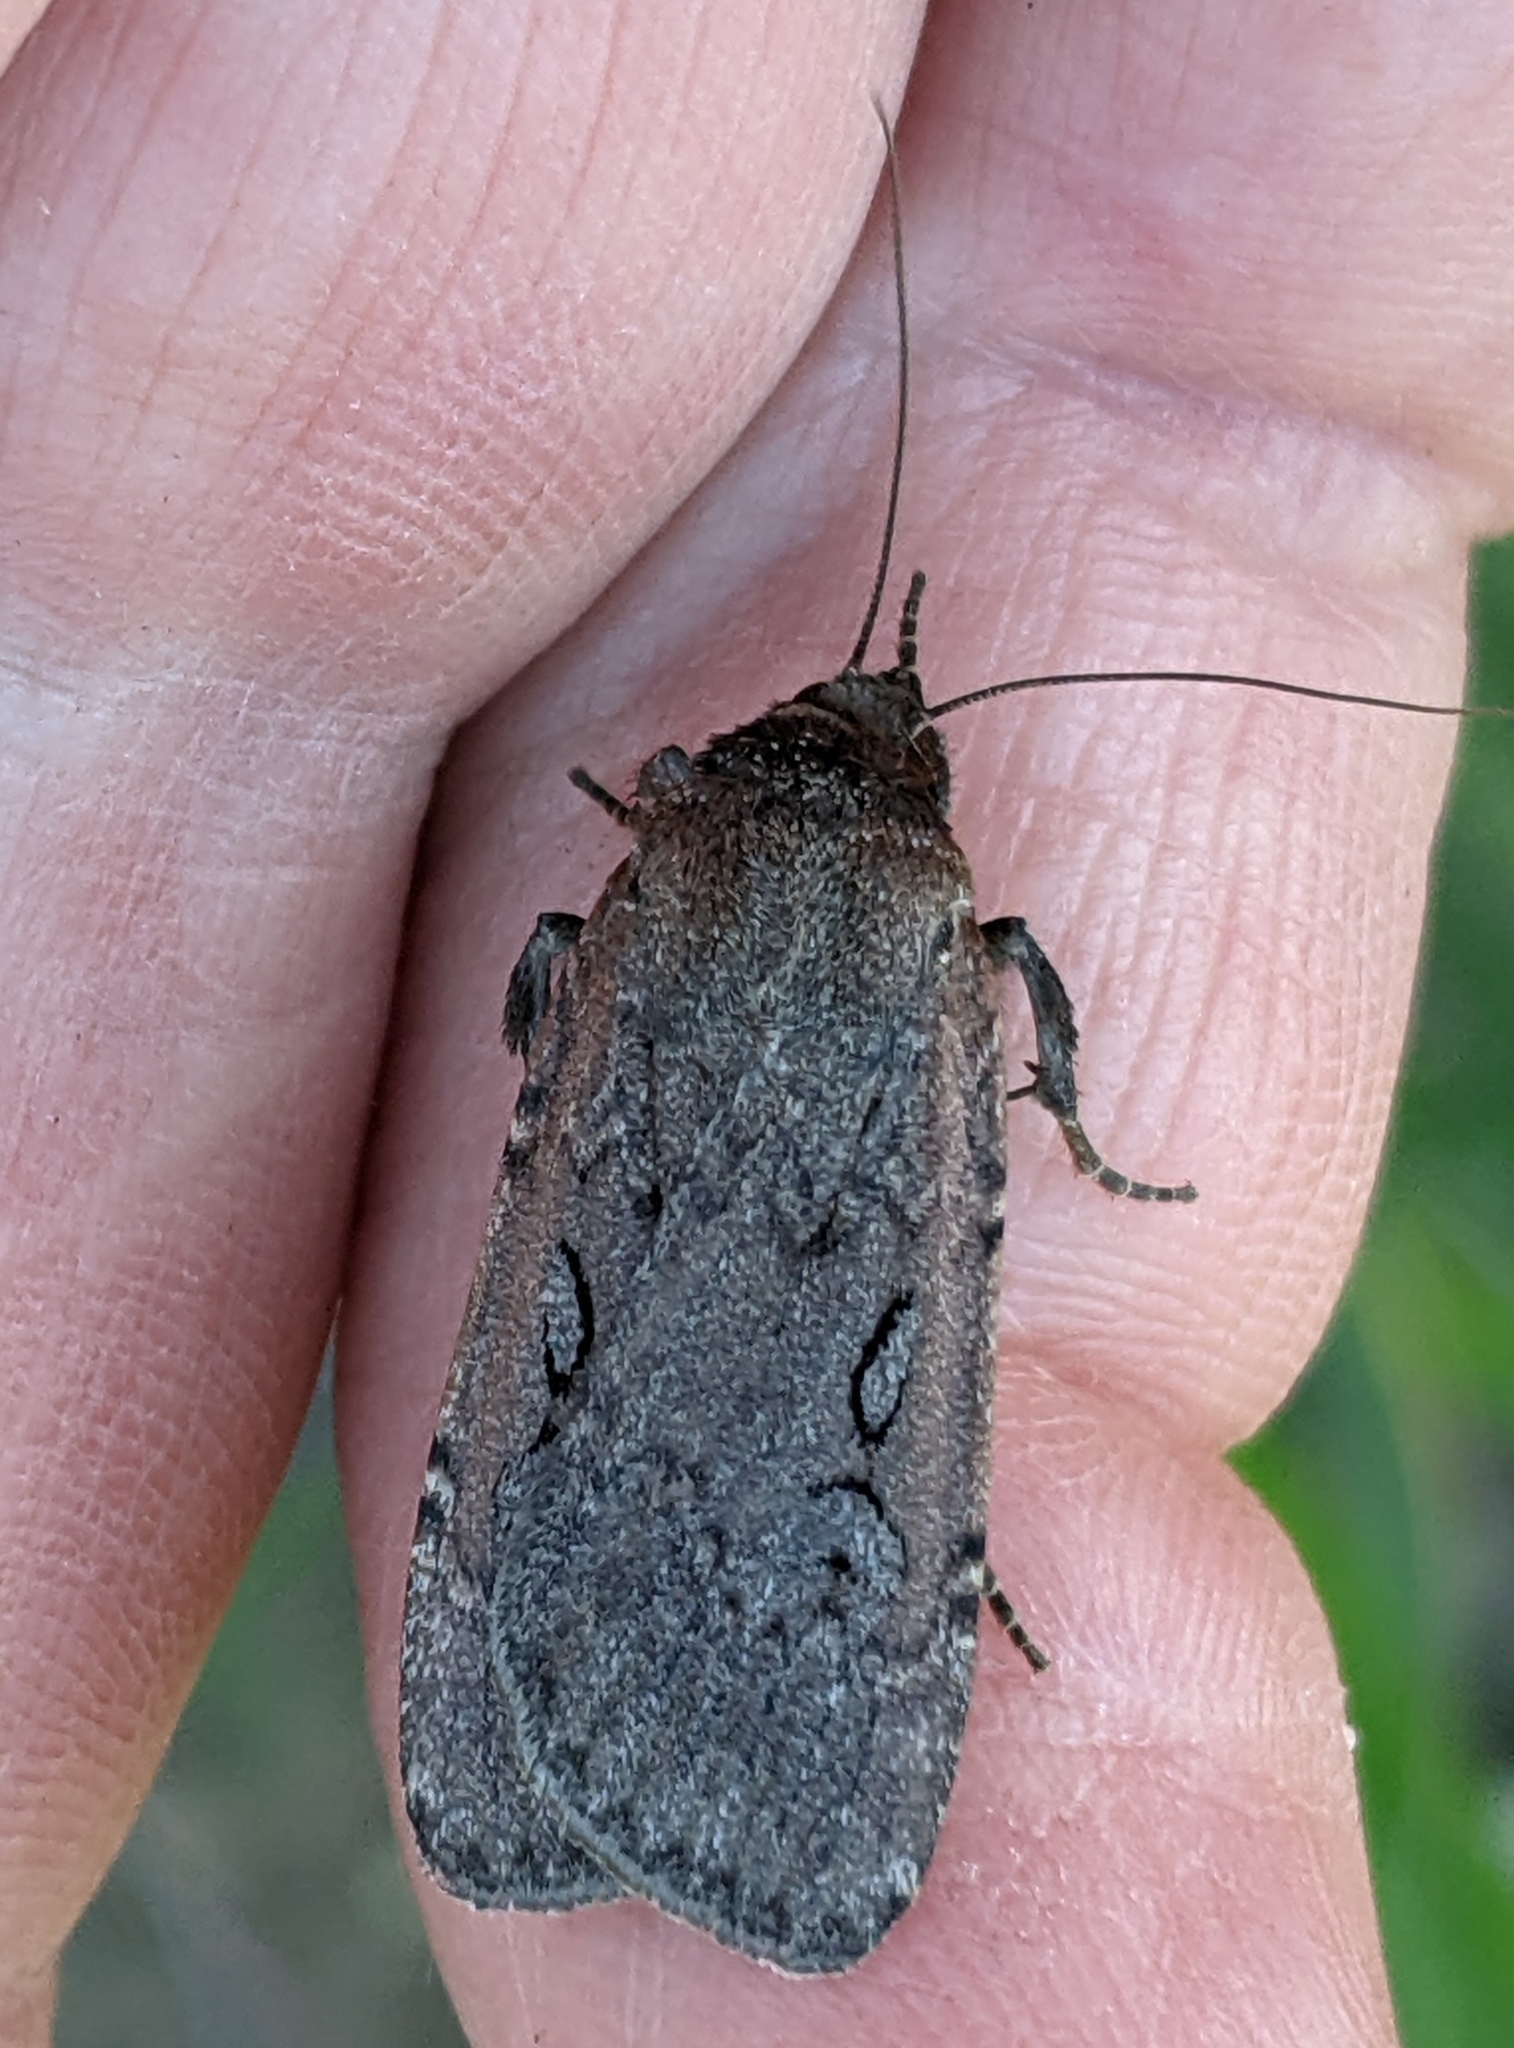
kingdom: Animalia
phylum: Arthropoda
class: Insecta
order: Lepidoptera
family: Noctuidae
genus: Spaelotis
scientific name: Spaelotis clandestina
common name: Clandestine dart
